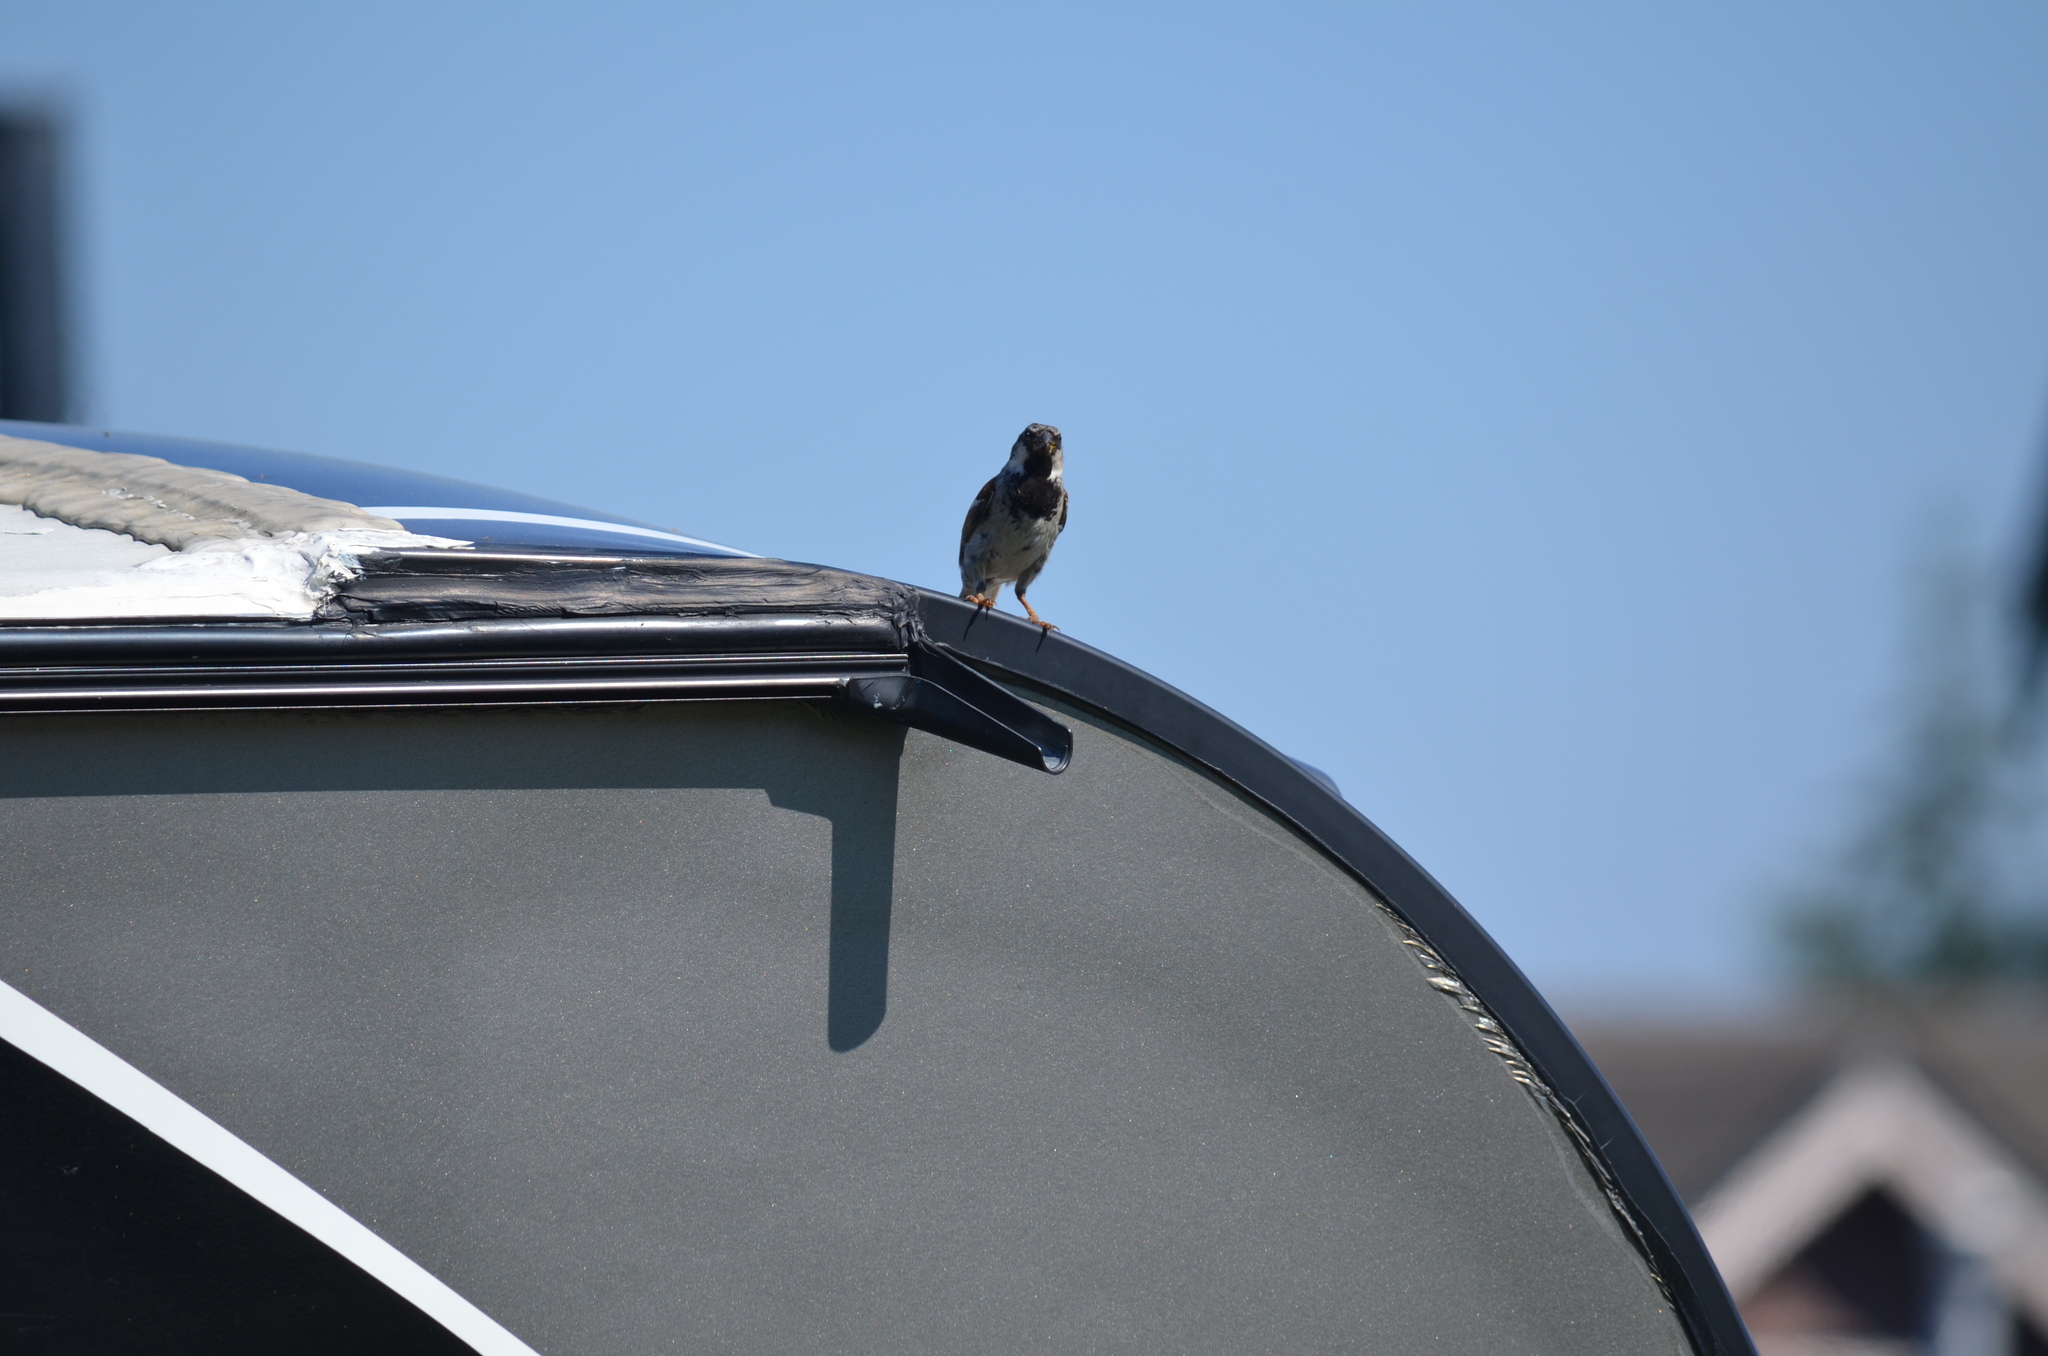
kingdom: Animalia
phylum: Chordata
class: Aves
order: Passeriformes
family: Passeridae
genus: Passer
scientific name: Passer domesticus
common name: House sparrow
